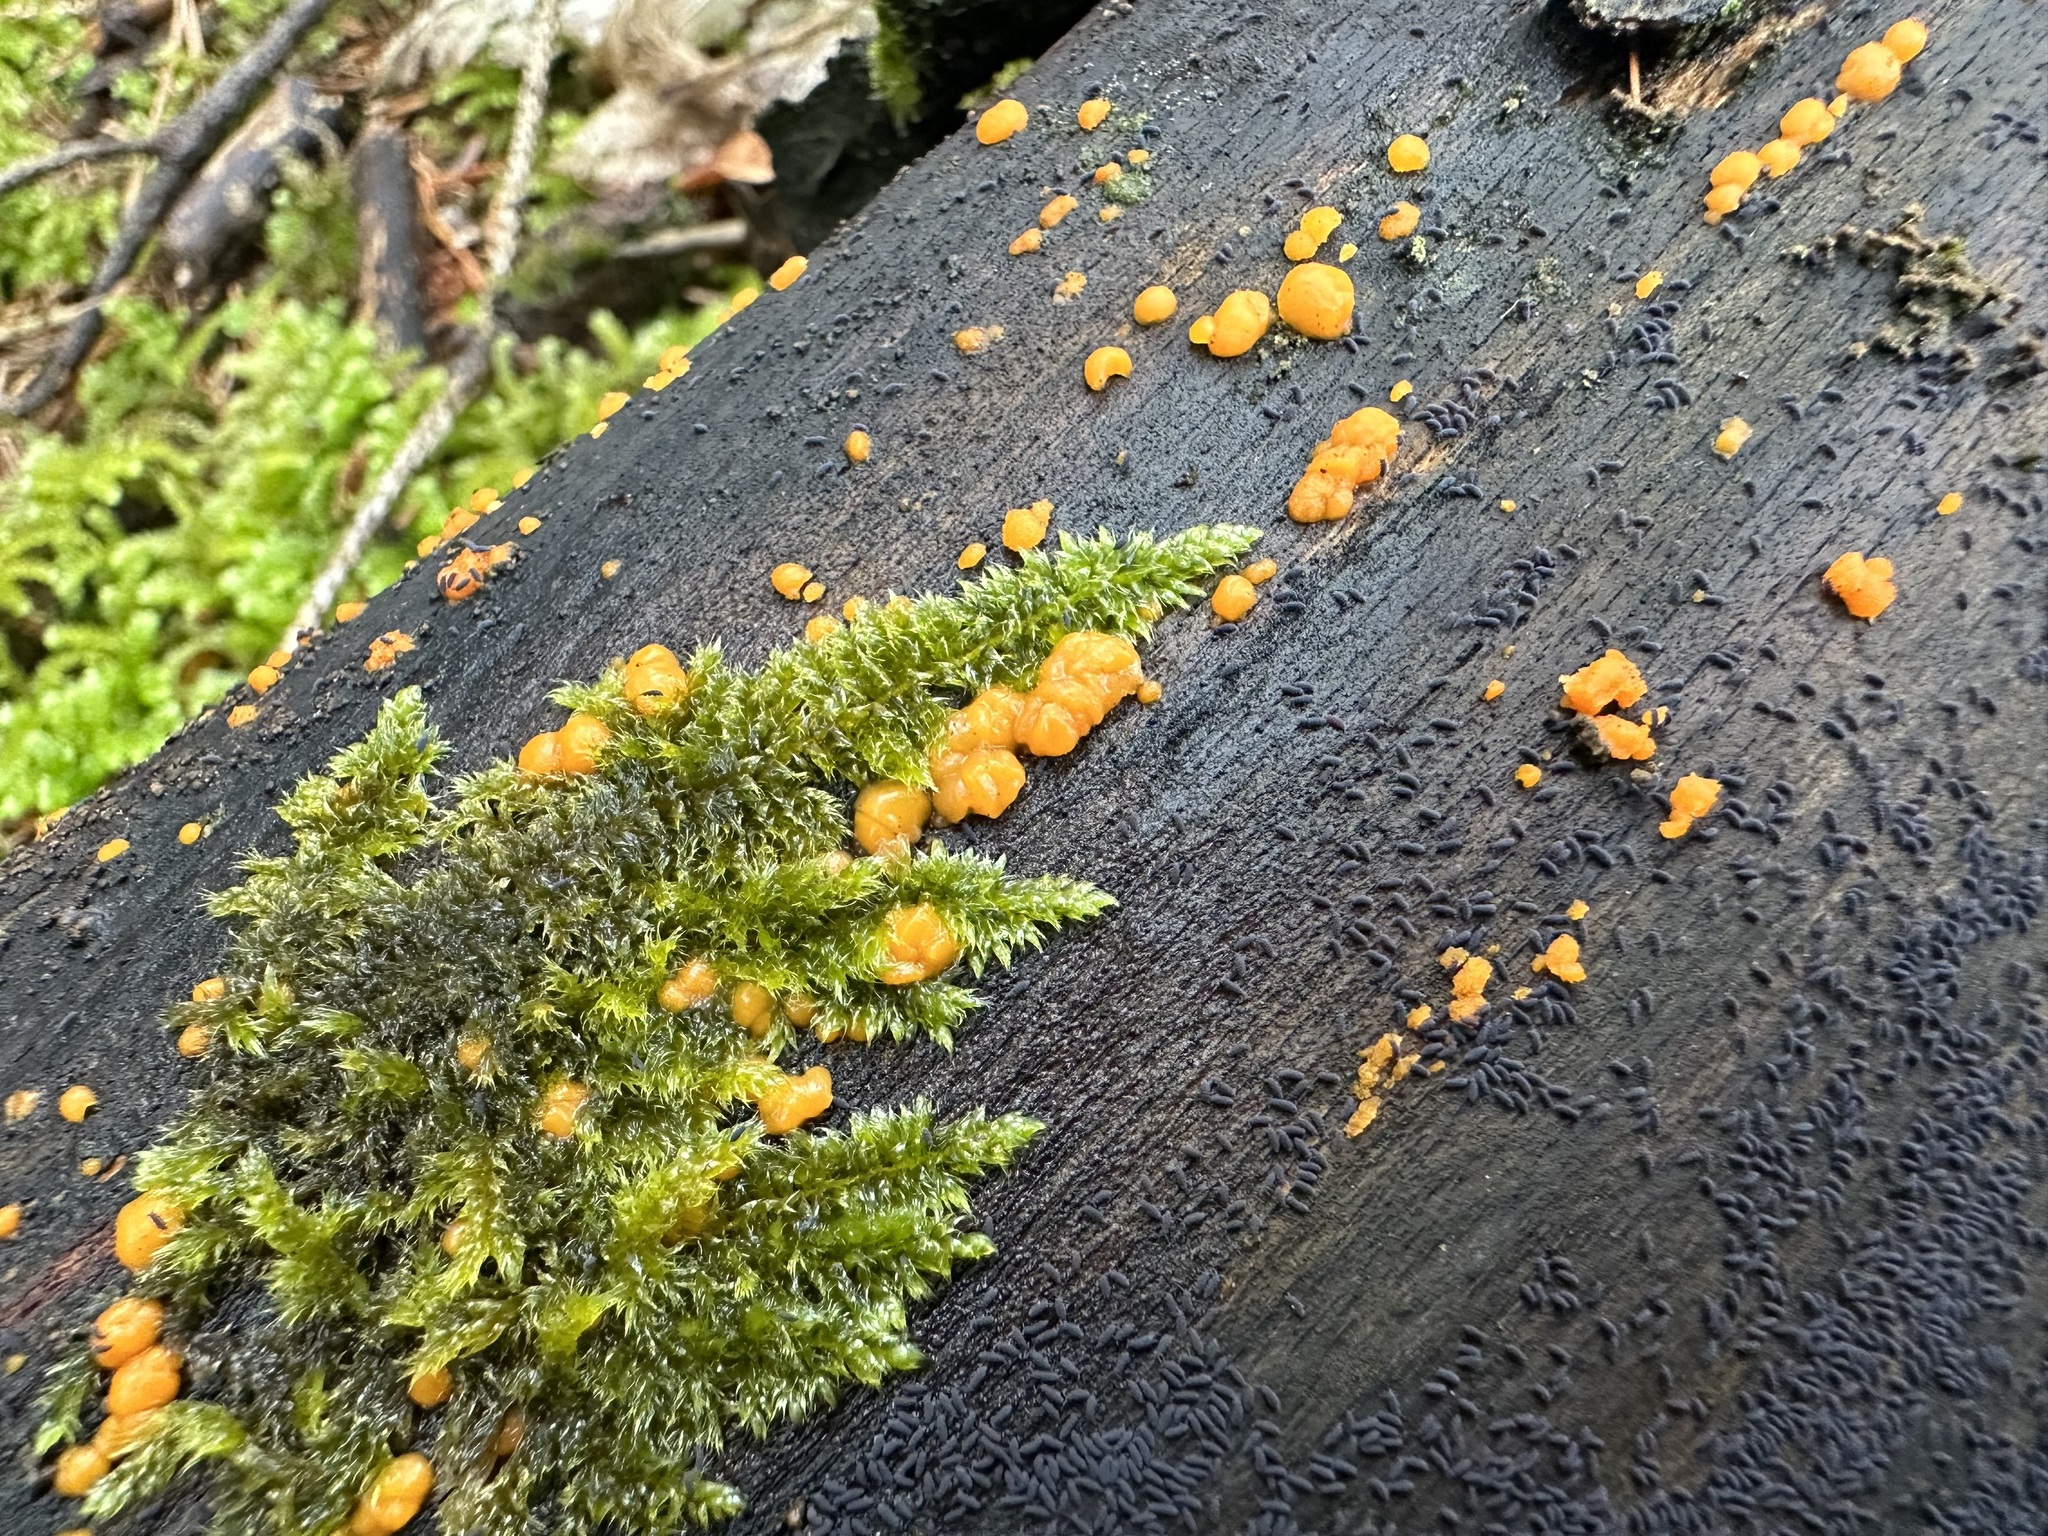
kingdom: Plantae
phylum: Bryophyta
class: Bryopsida
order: Hypnales
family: Hypnaceae
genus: Hypnum
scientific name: Hypnum cupressiforme
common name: Cypress-leaved plait-moss
